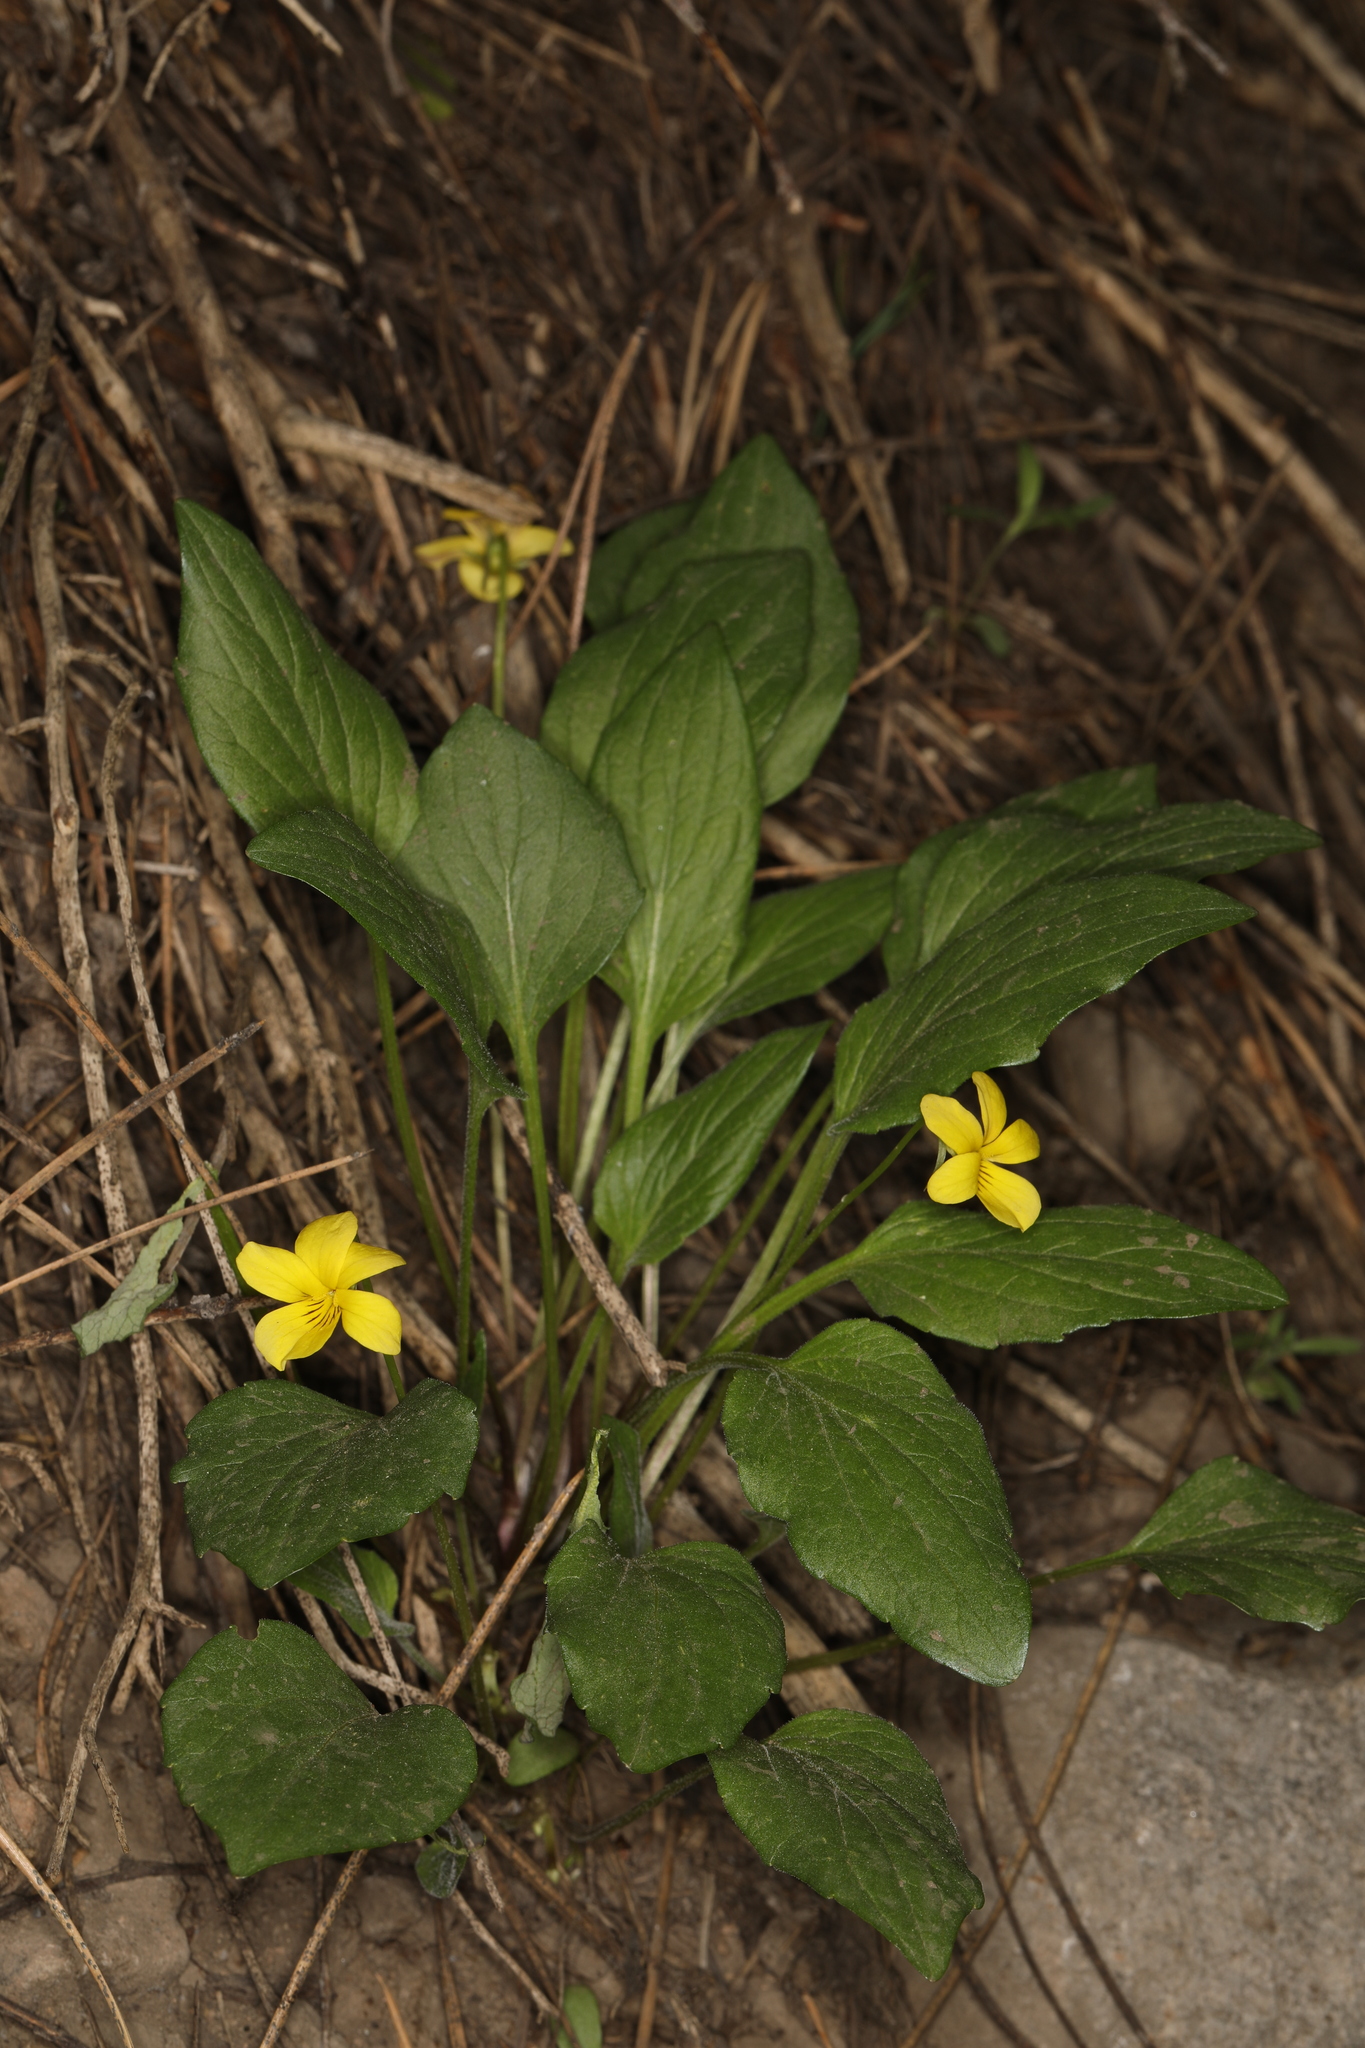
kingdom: Plantae
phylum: Tracheophyta
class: Magnoliopsida
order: Malpighiales
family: Violaceae
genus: Viola
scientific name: Viola praemorsa
